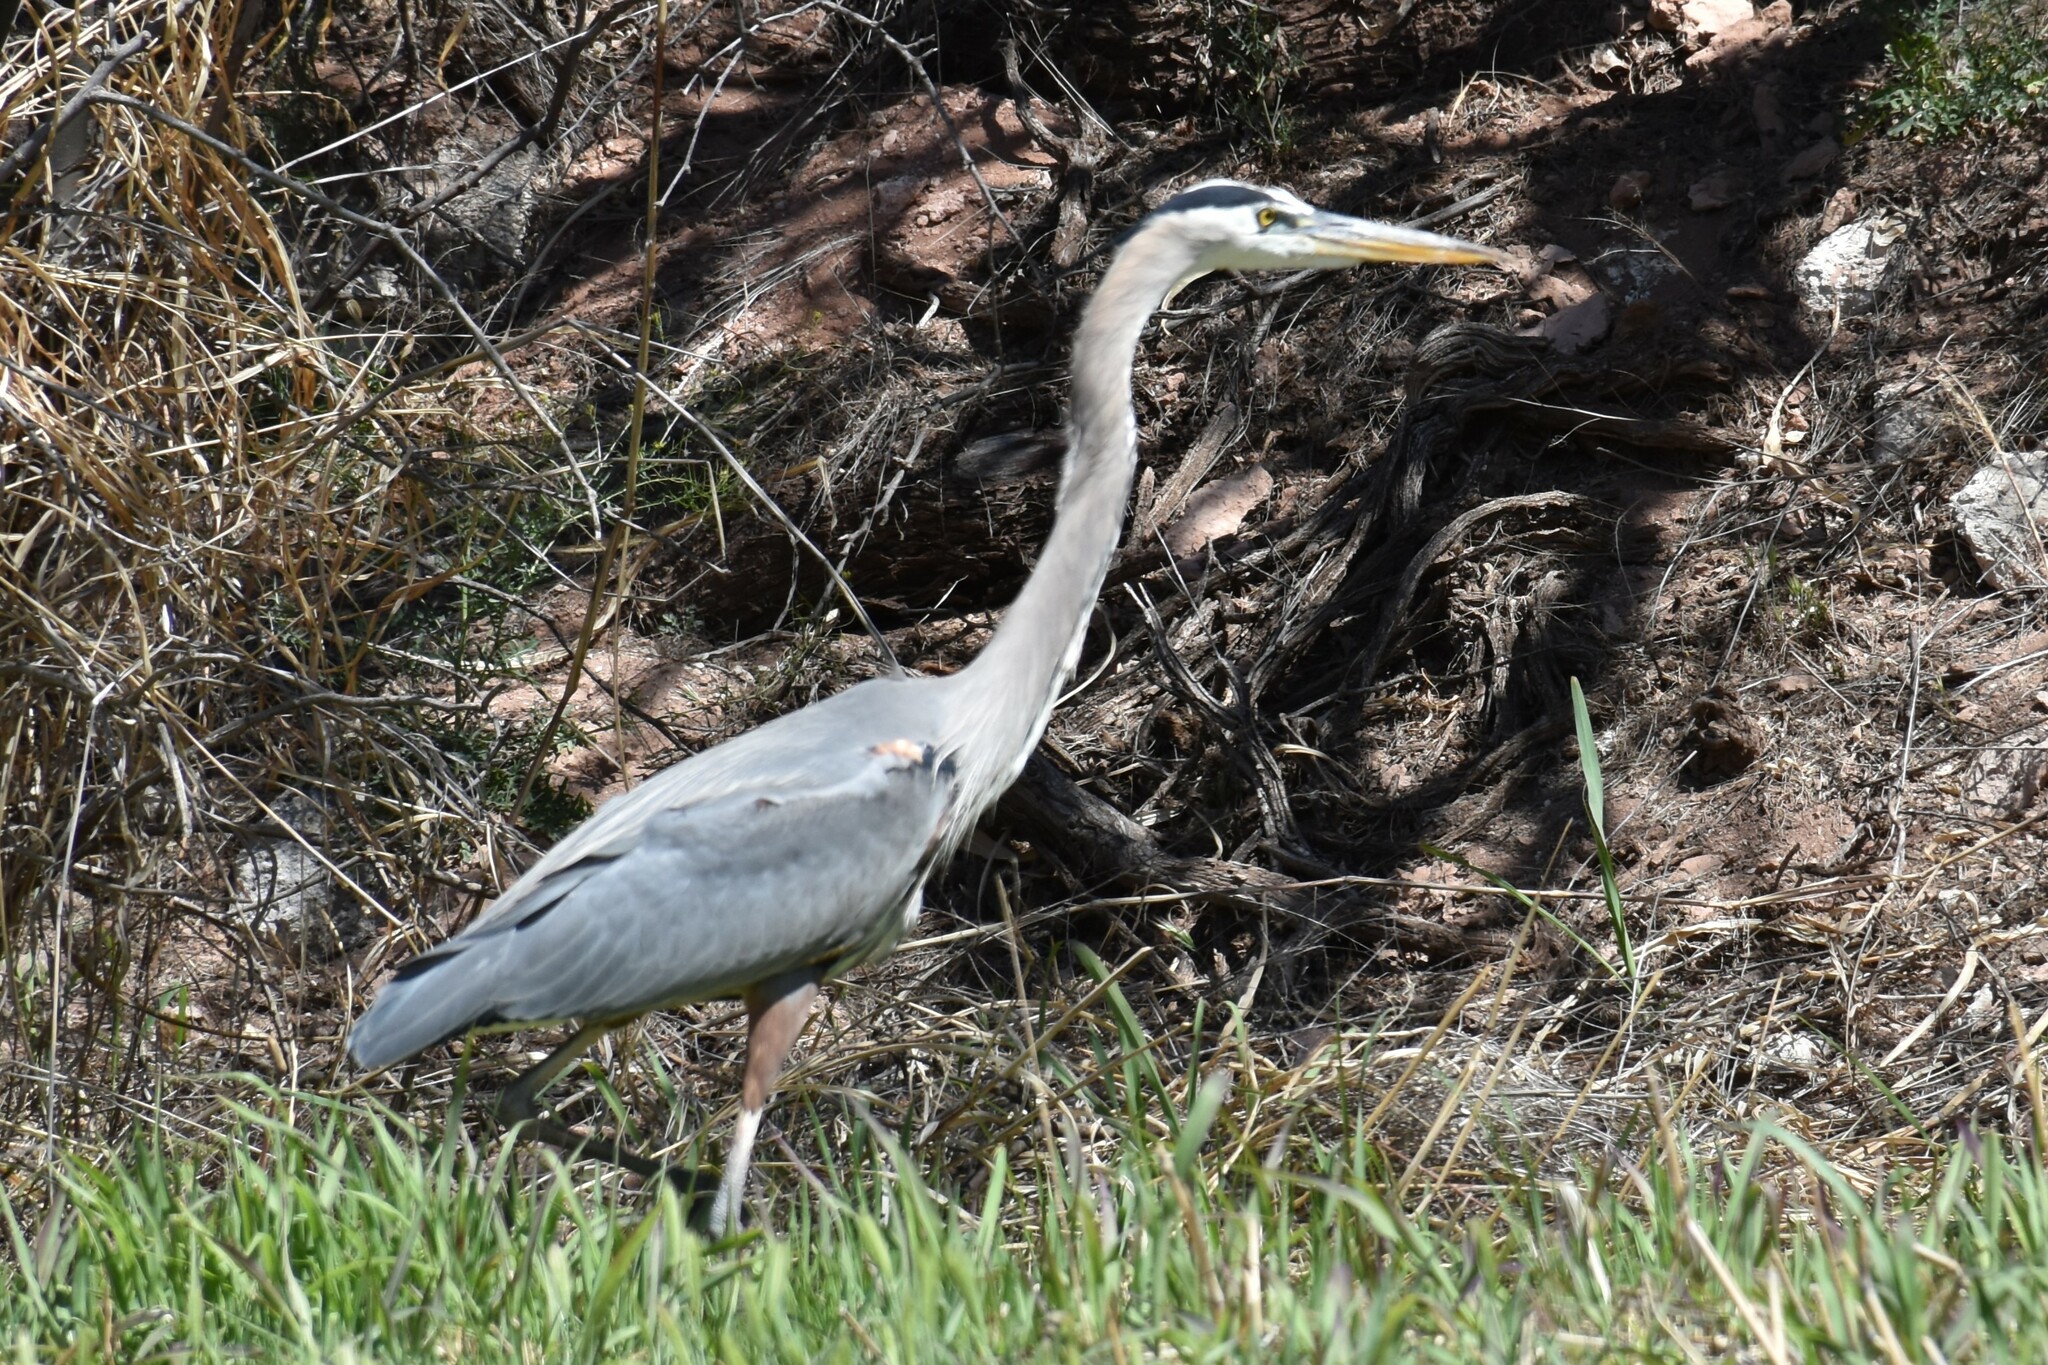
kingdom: Animalia
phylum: Chordata
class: Aves
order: Pelecaniformes
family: Ardeidae
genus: Ardea
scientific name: Ardea herodias
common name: Great blue heron
